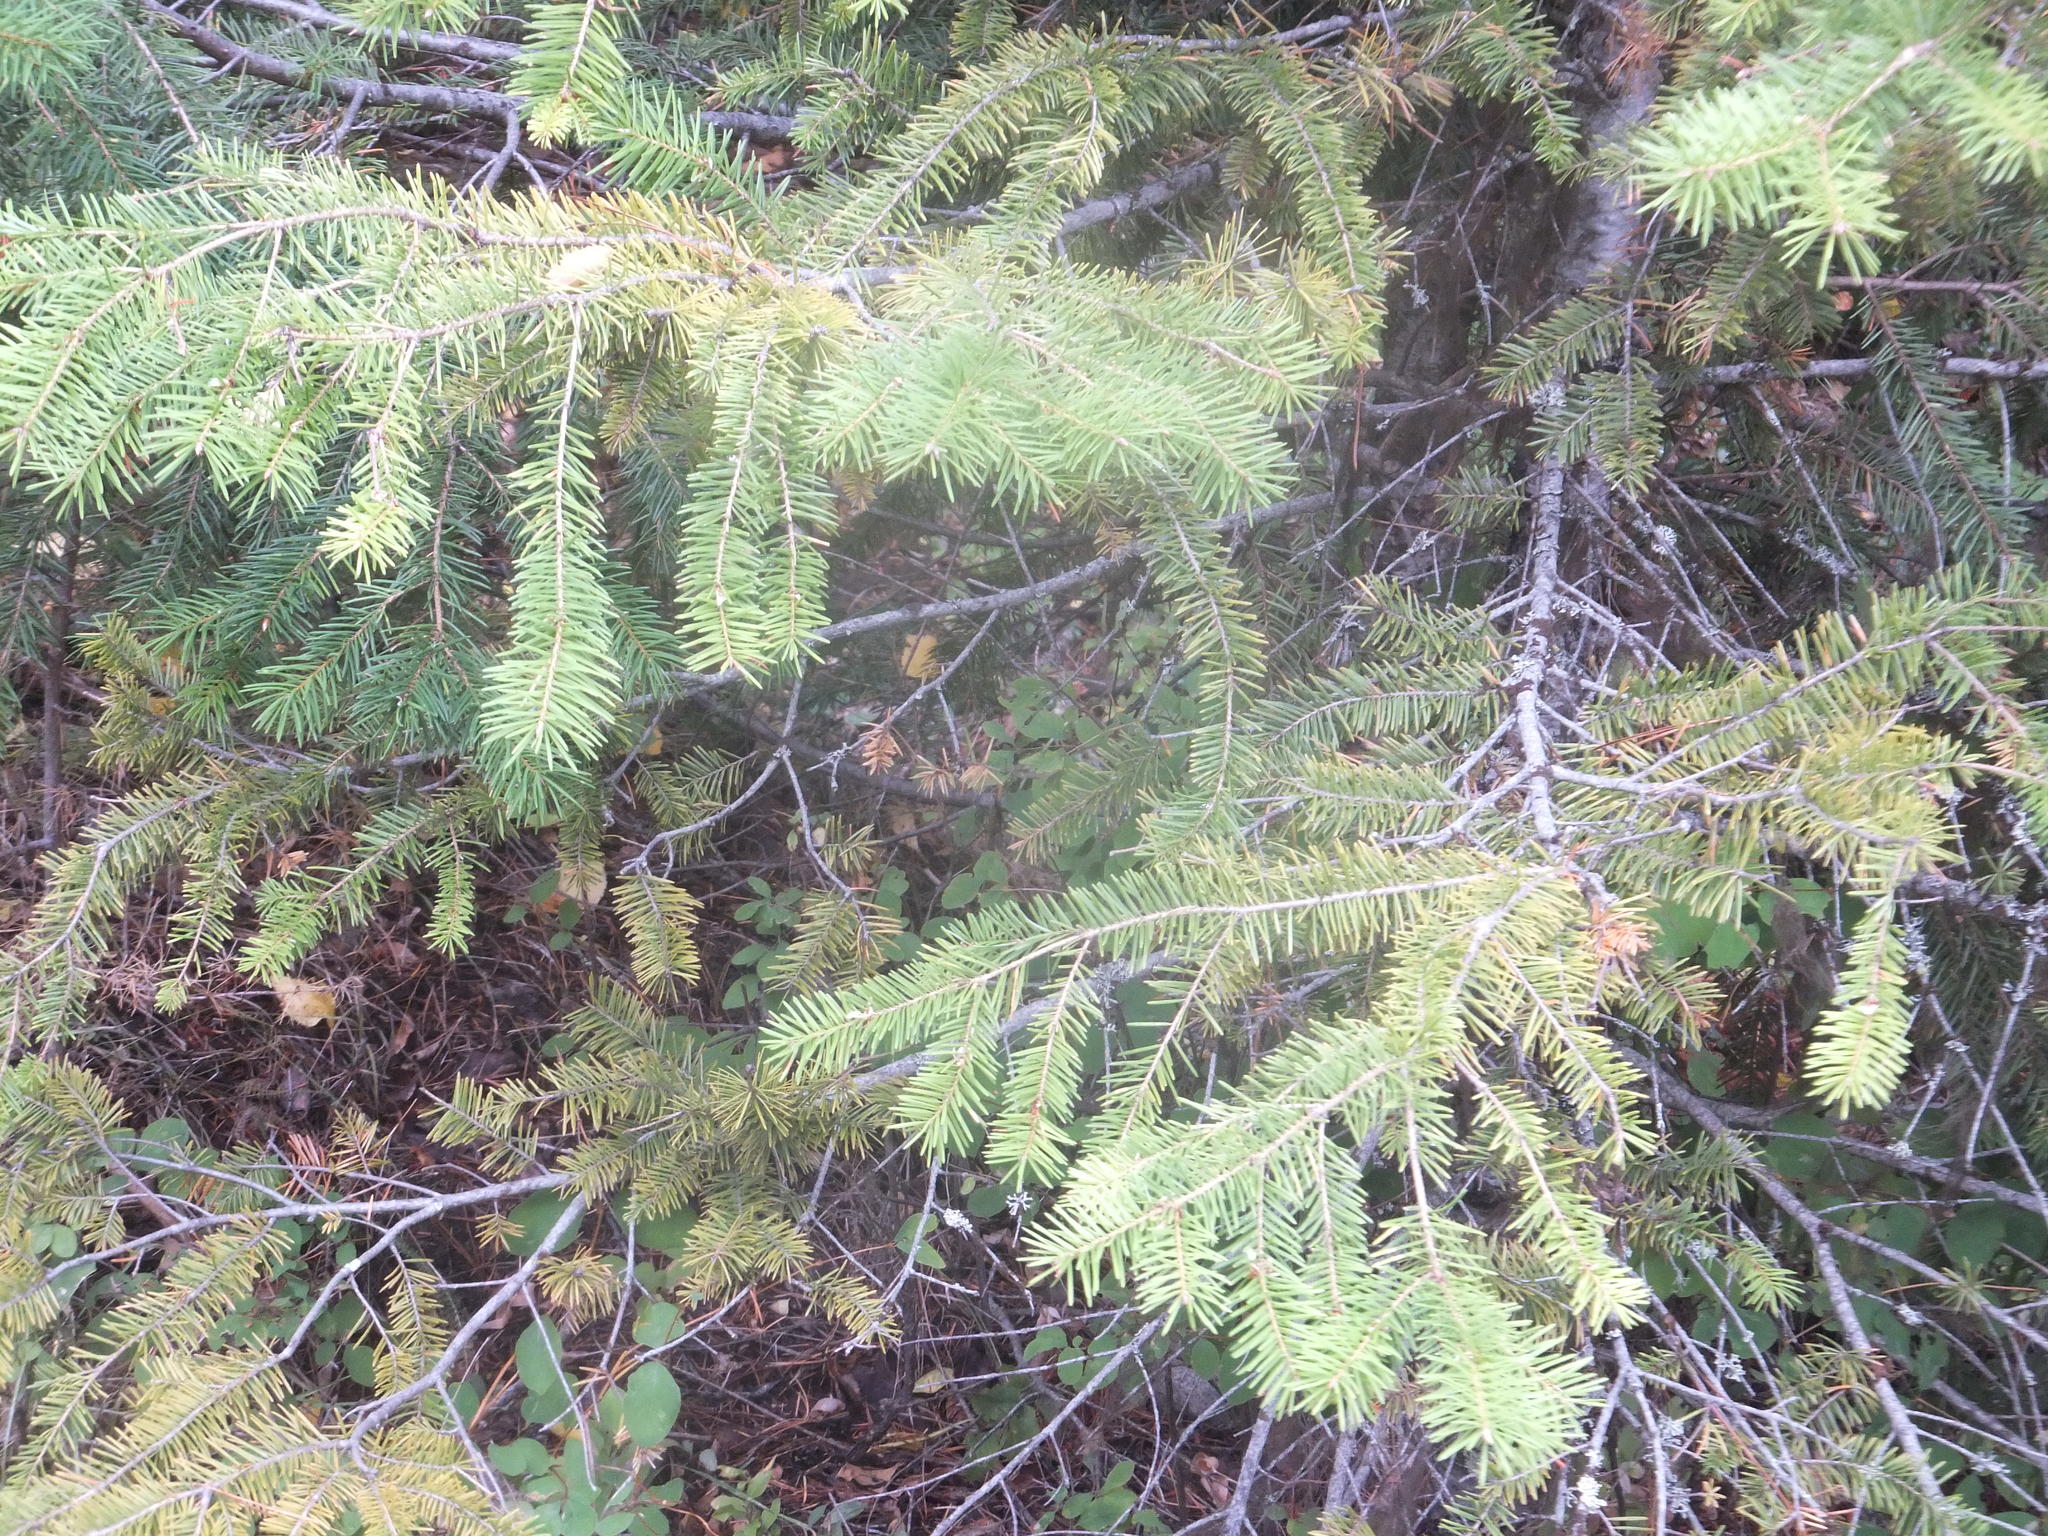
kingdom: Plantae
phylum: Tracheophyta
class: Pinopsida
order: Pinales
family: Pinaceae
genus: Pseudotsuga
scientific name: Pseudotsuga menziesii
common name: Douglas fir
